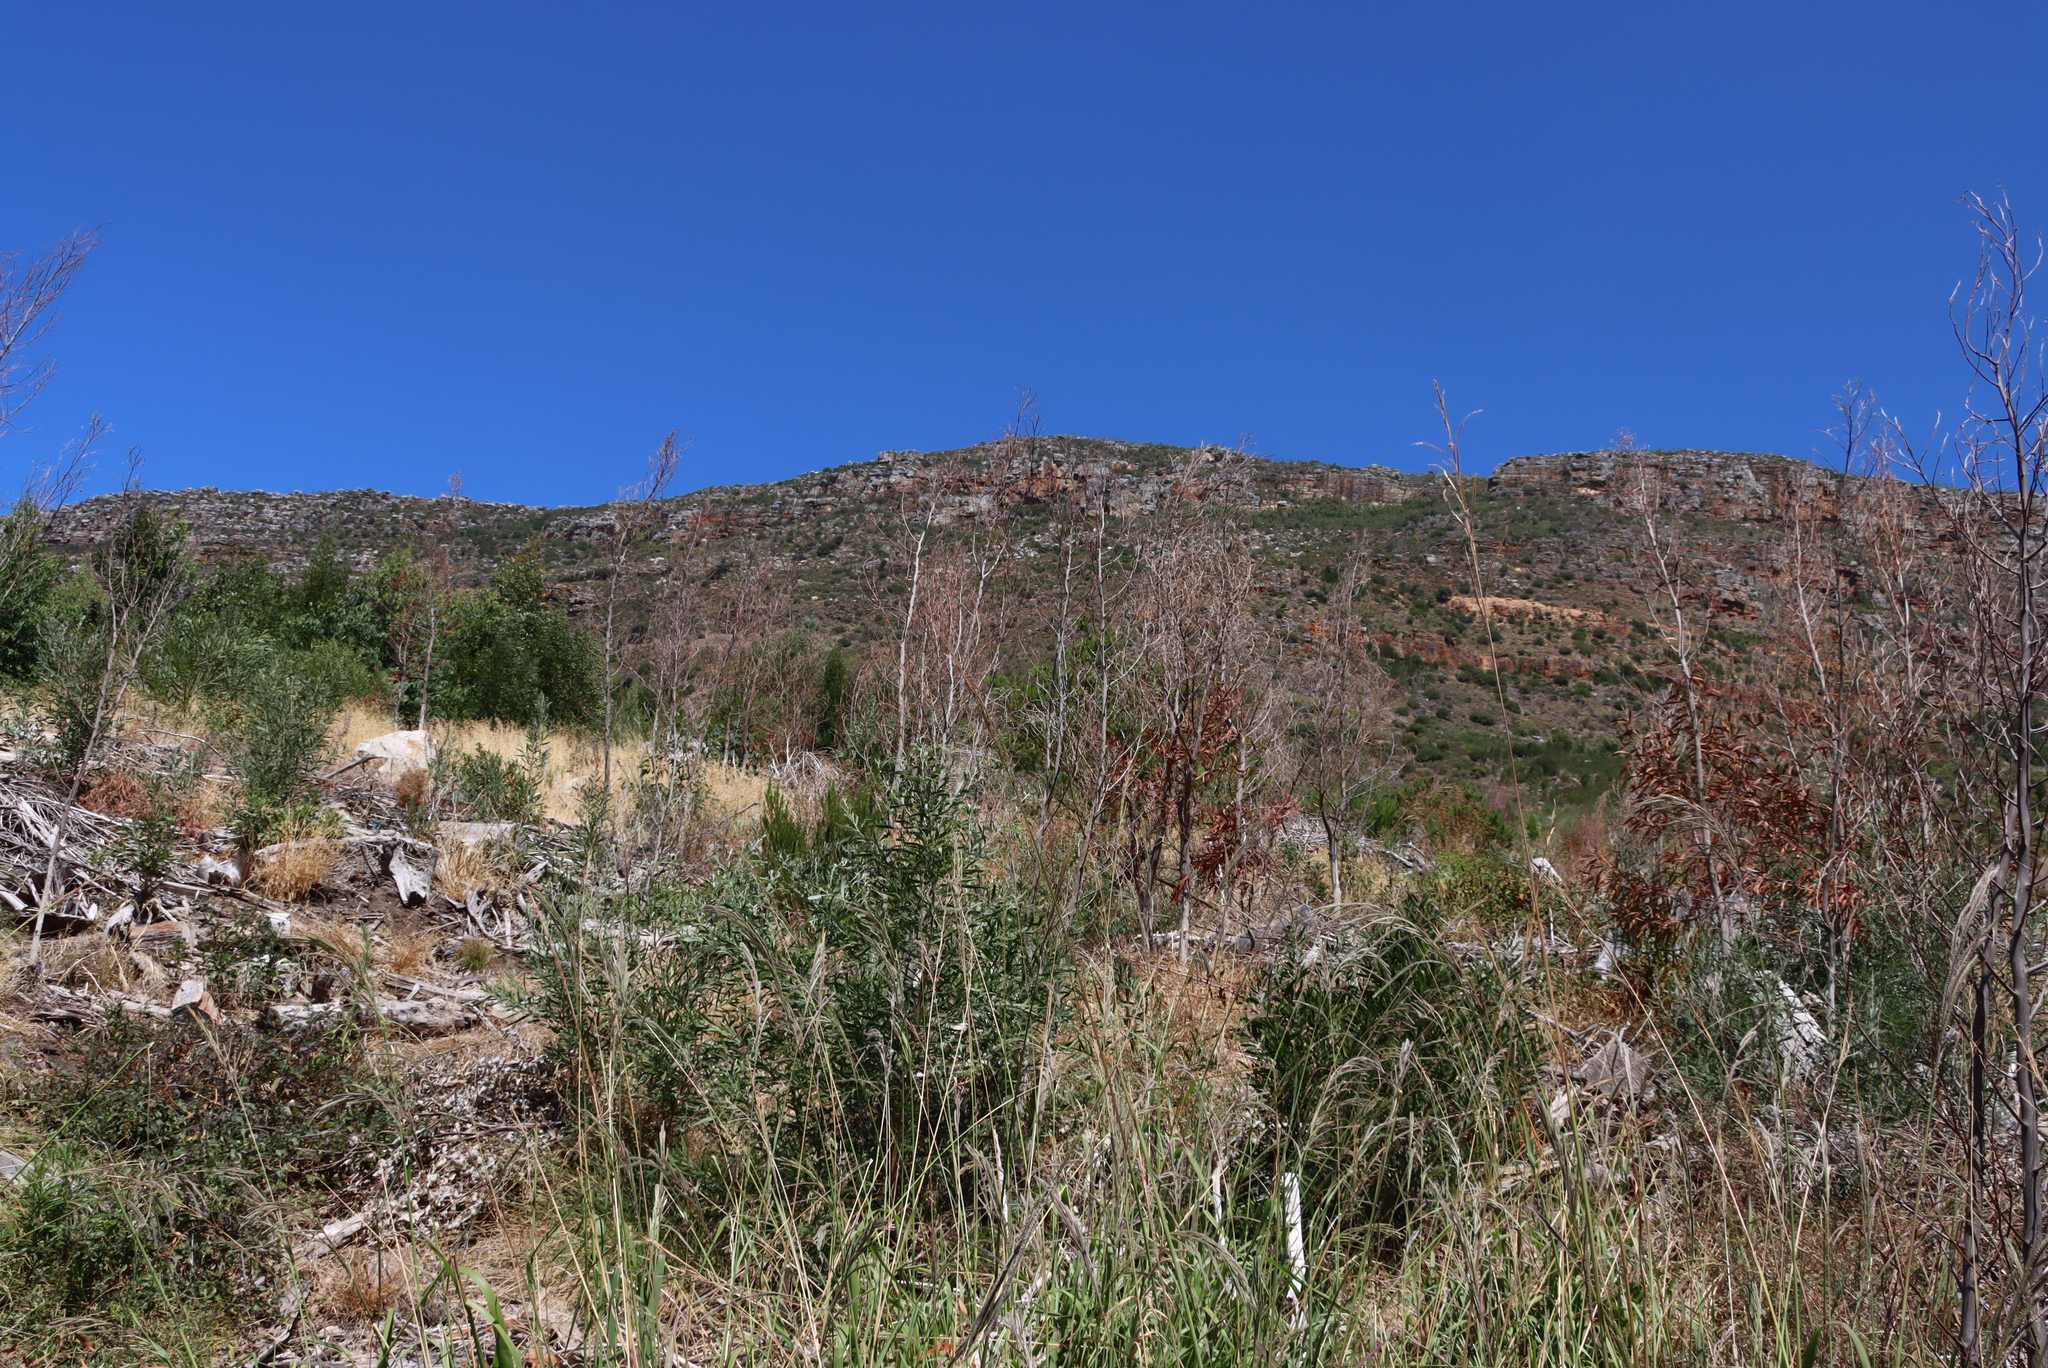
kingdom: Plantae
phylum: Tracheophyta
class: Magnoliopsida
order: Fabales
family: Fabaceae
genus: Acacia
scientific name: Acacia melanoxylon
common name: Blackwood
